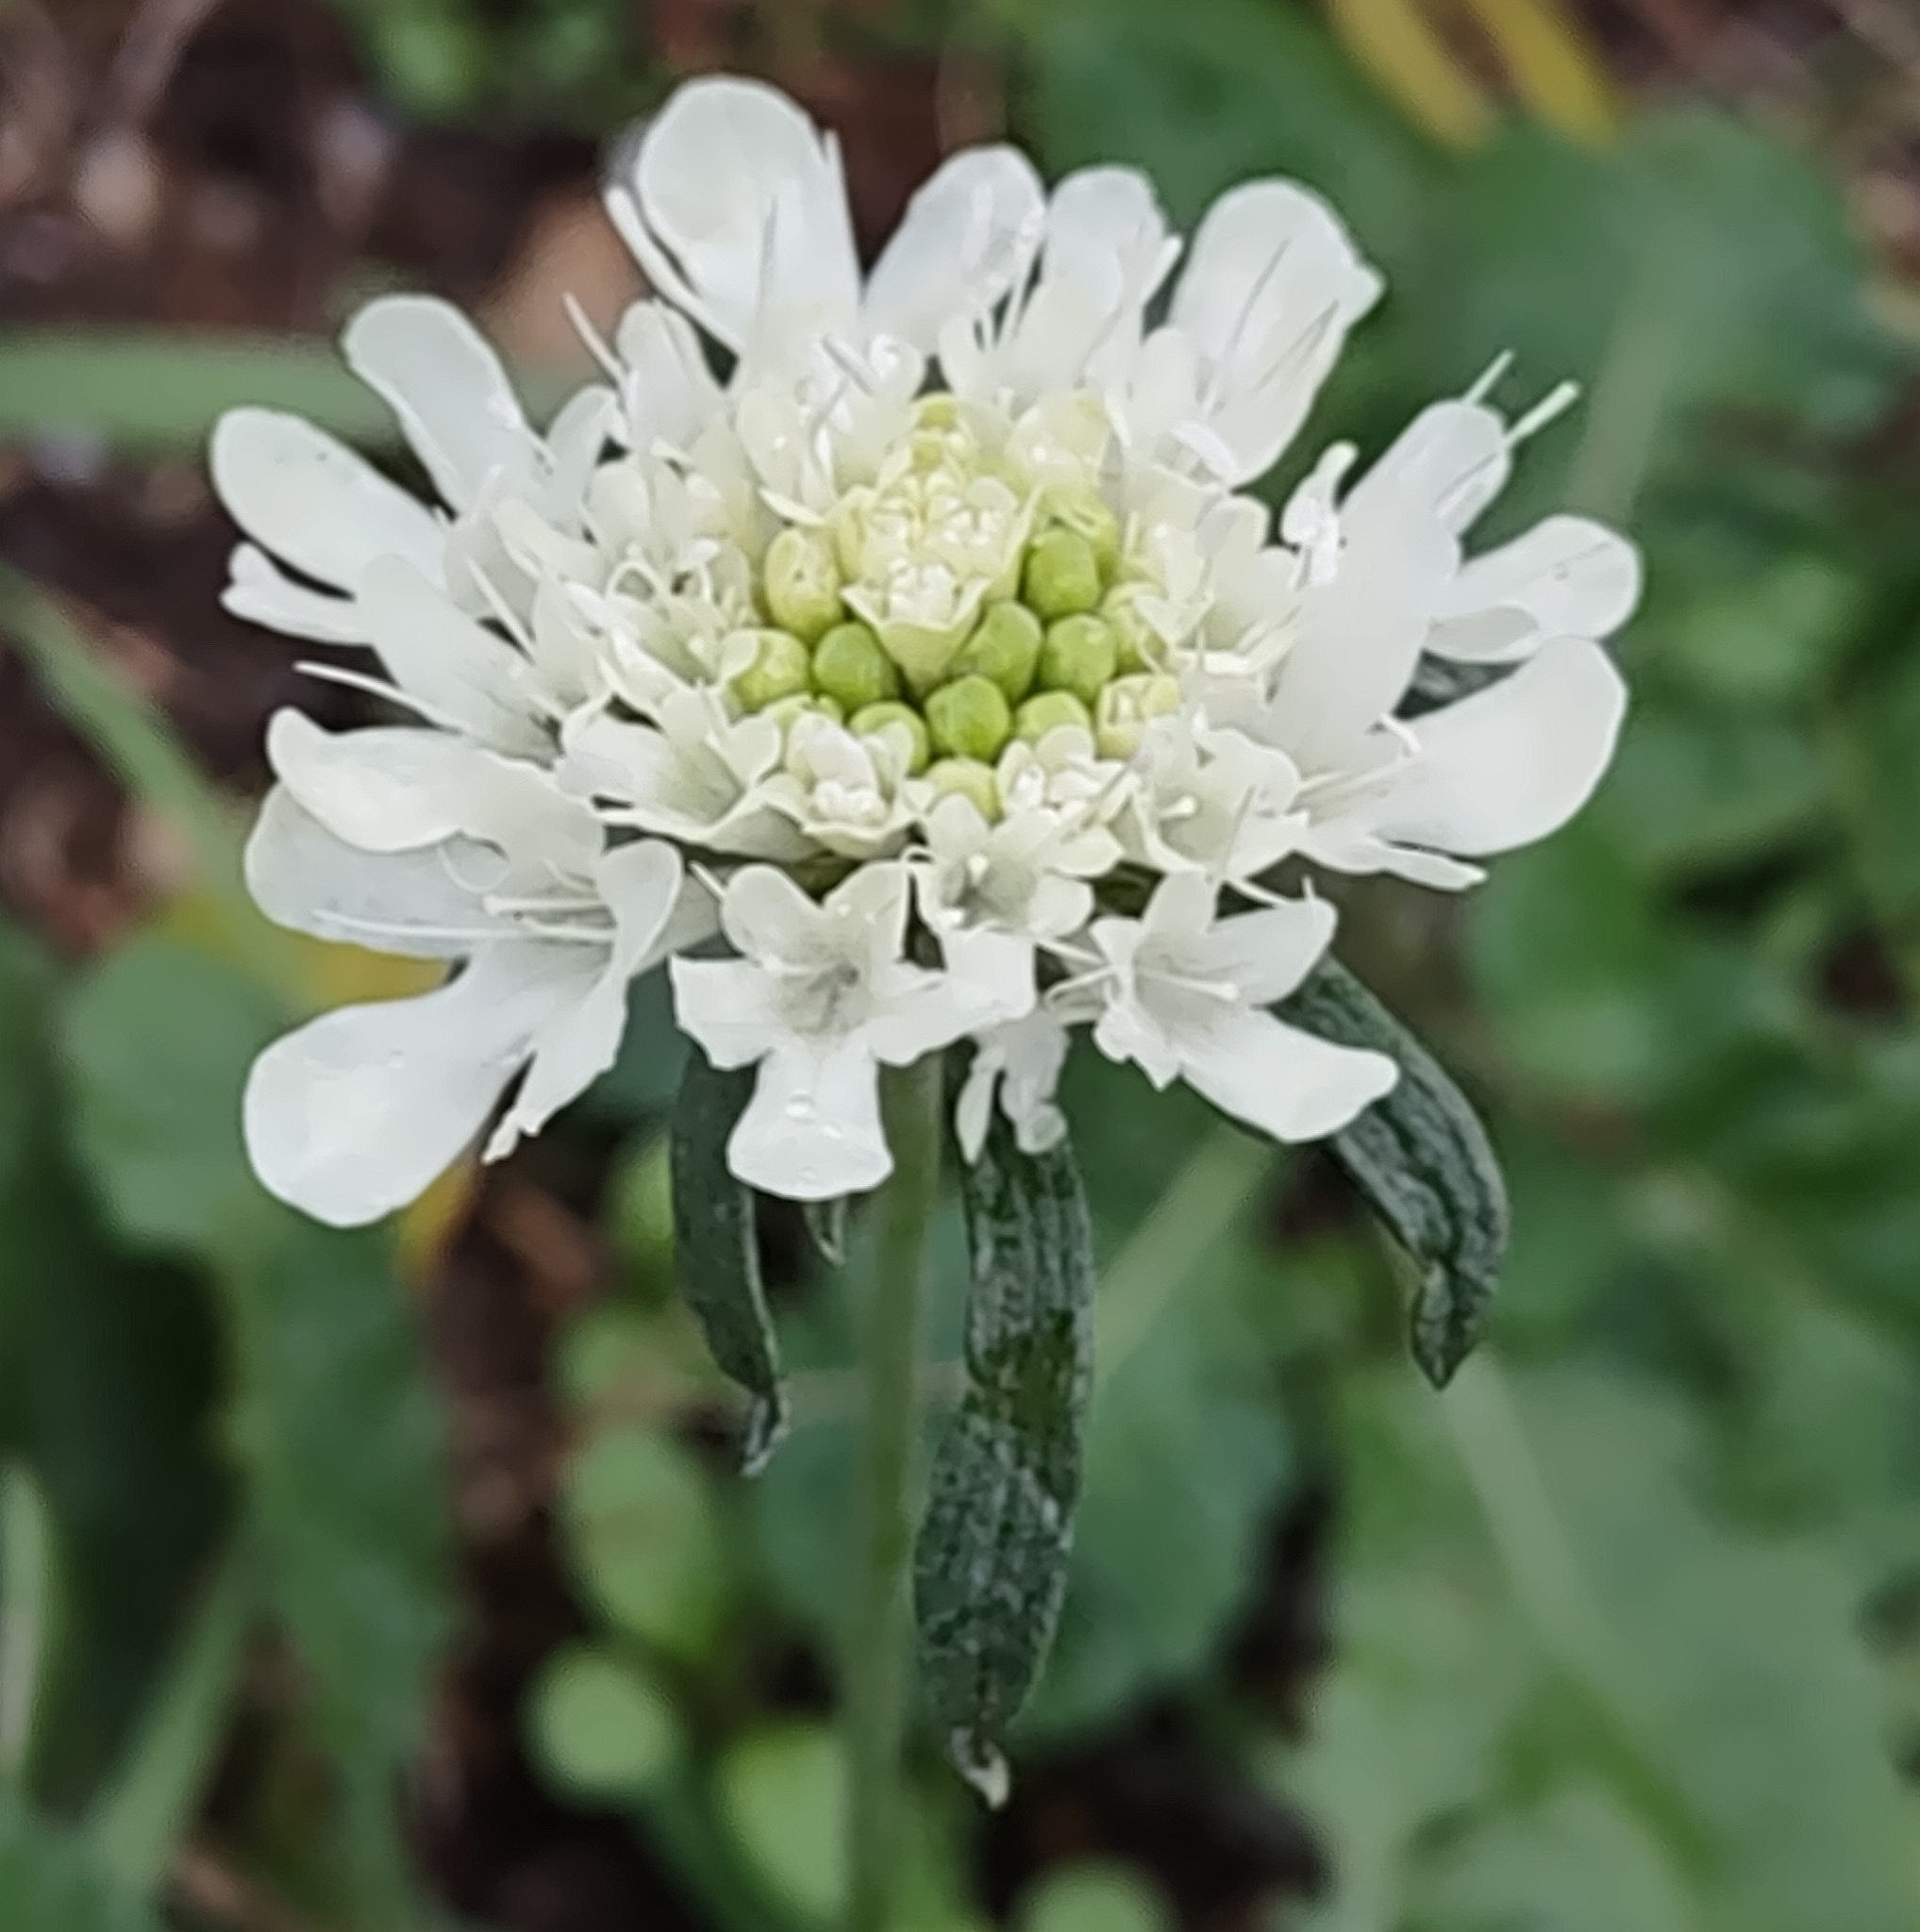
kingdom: Plantae
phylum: Tracheophyta
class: Magnoliopsida
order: Dipsacales
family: Caprifoliaceae
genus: Scabiosa
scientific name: Scabiosa ochroleuca
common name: Cream pincushions
